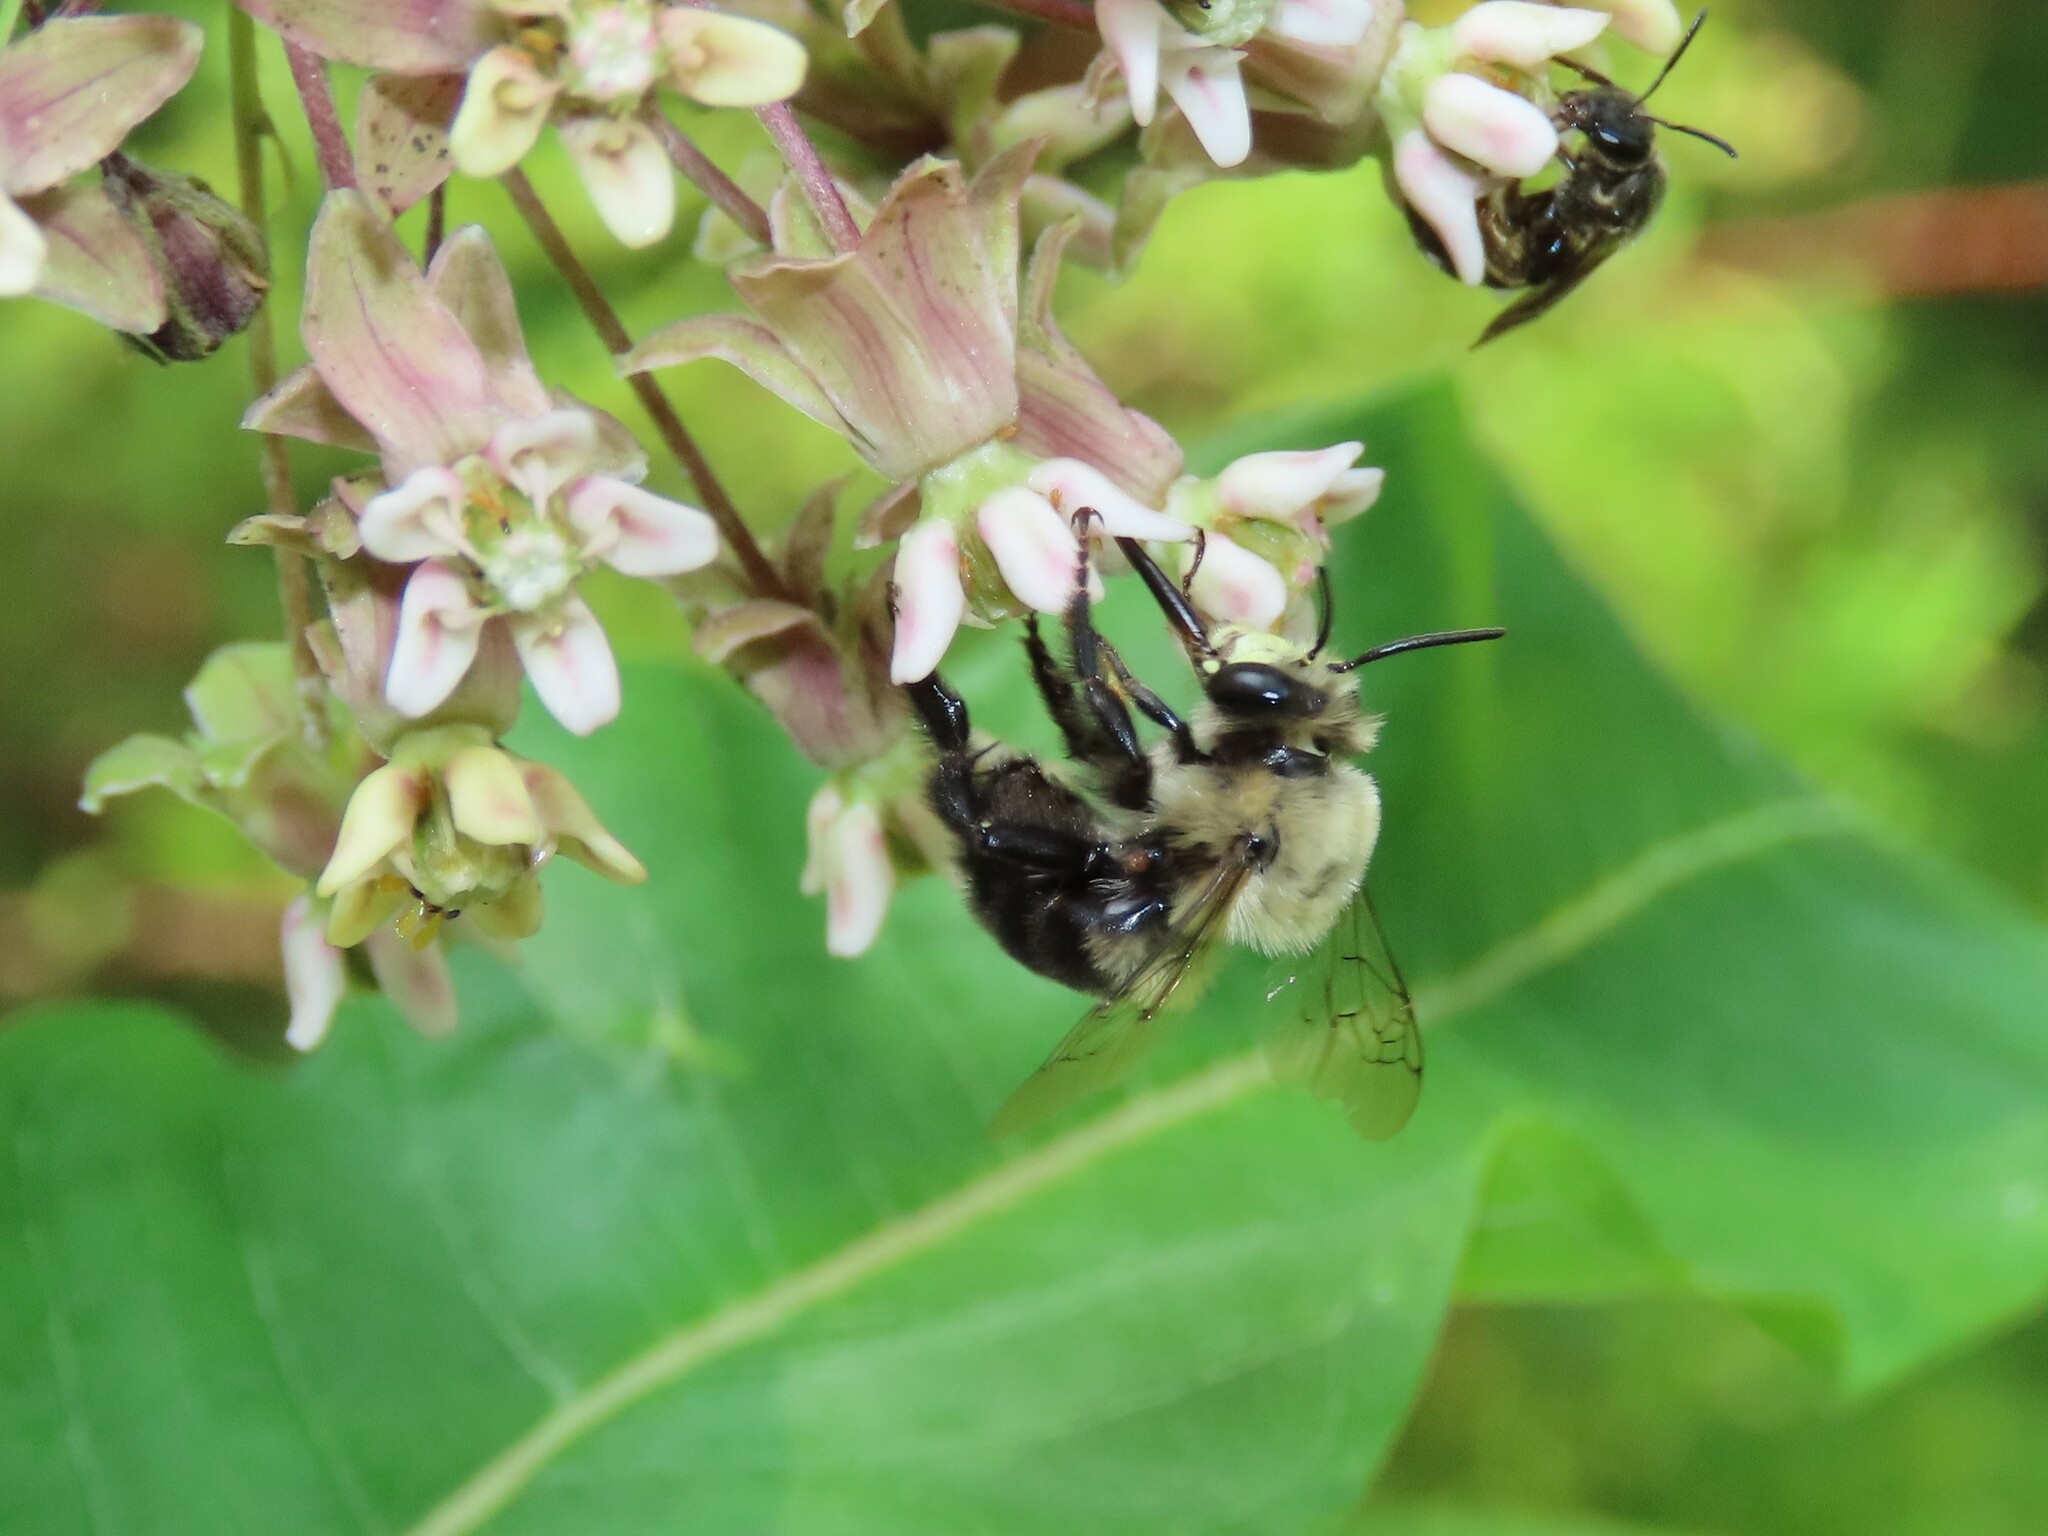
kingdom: Animalia
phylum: Arthropoda
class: Insecta
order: Hymenoptera
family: Apidae
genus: Anthophora
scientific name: Anthophora abrupta
